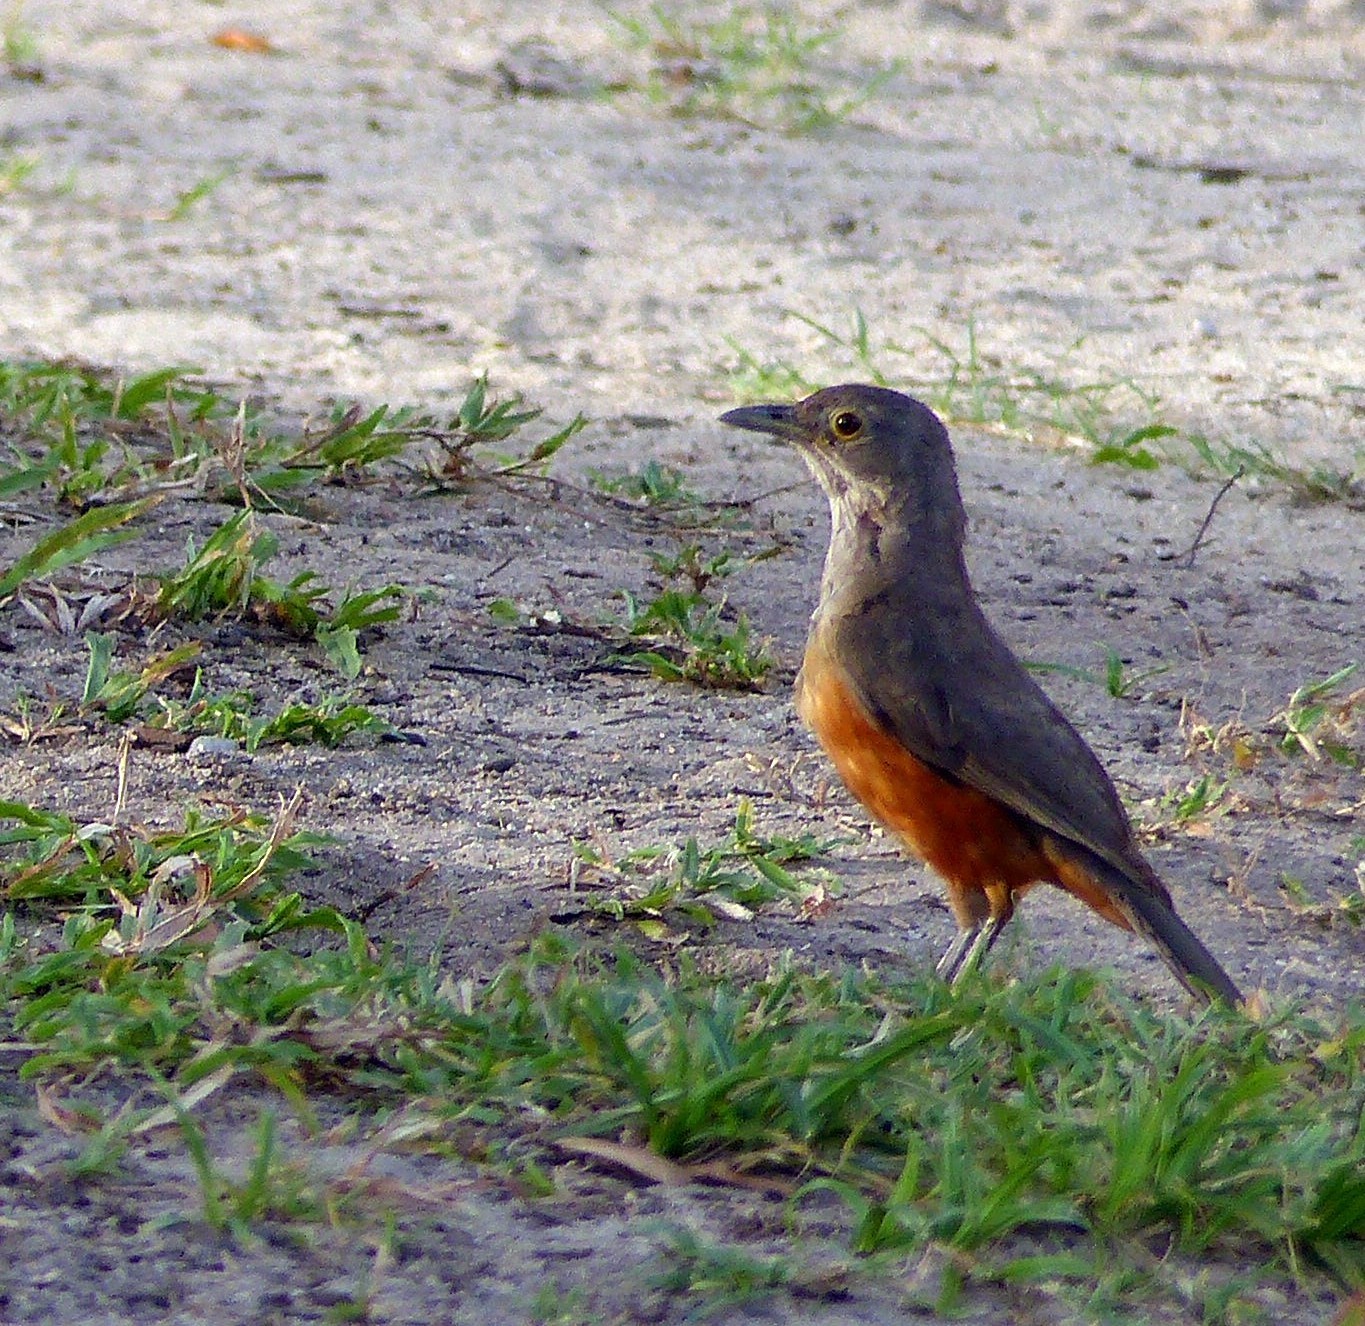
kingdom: Animalia
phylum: Chordata
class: Aves
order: Passeriformes
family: Turdidae
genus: Turdus
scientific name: Turdus rufiventris
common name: Rufous-bellied thrush
